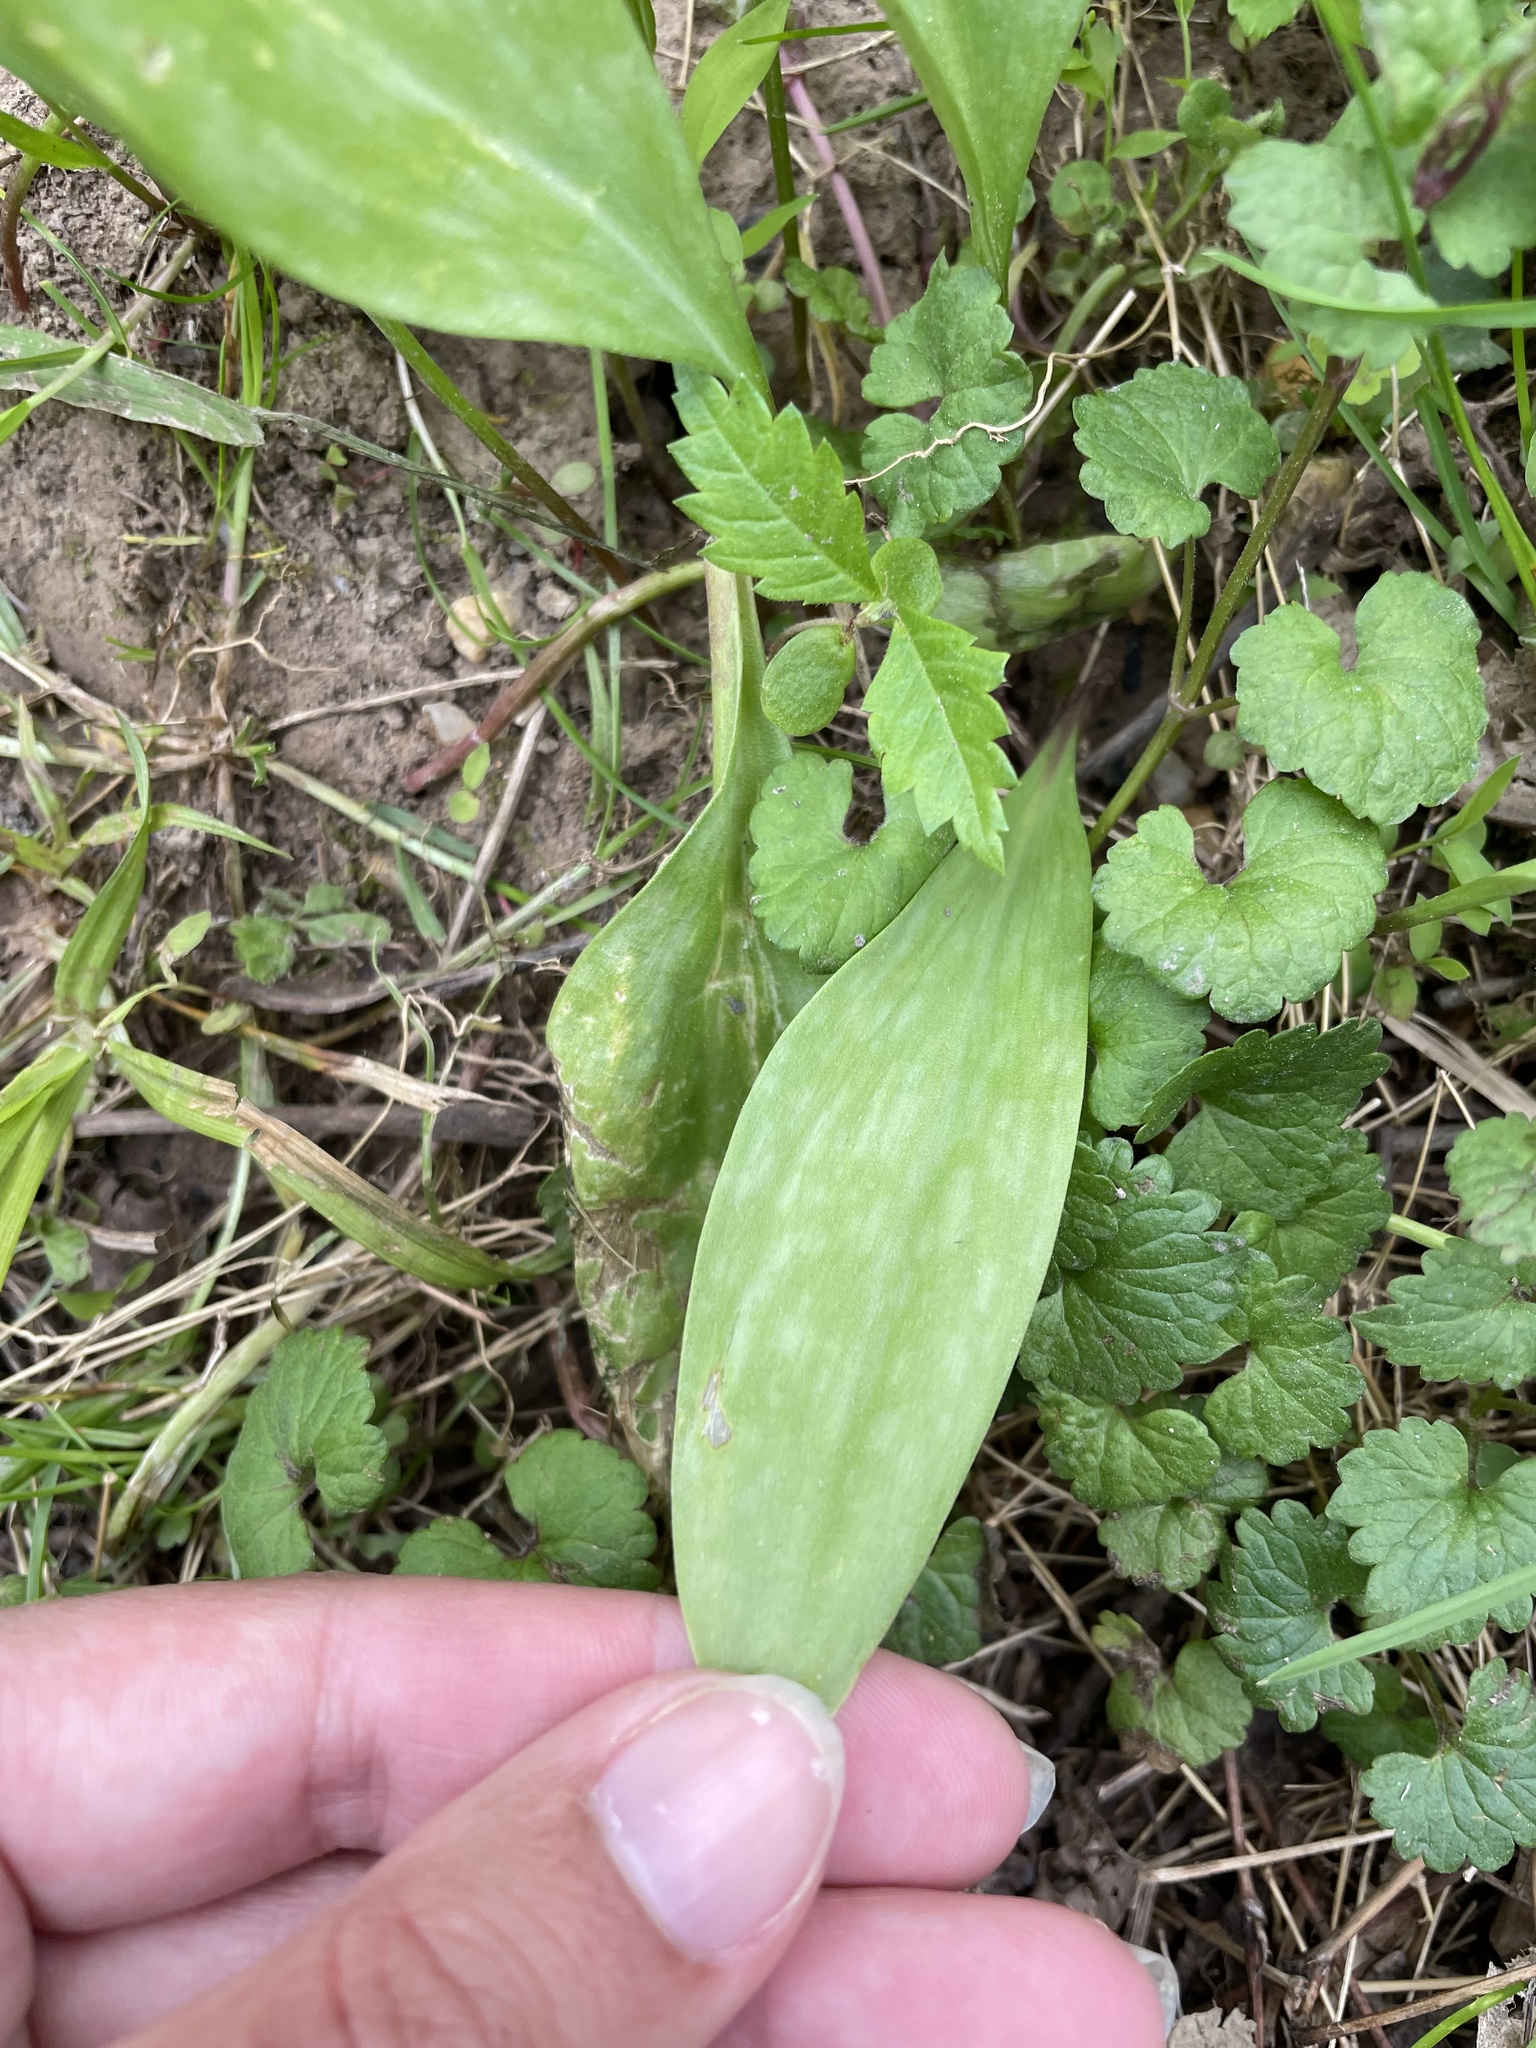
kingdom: Plantae
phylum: Tracheophyta
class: Liliopsida
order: Liliales
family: Liliaceae
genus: Erythronium
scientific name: Erythronium americanum
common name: Yellow adder's-tongue
